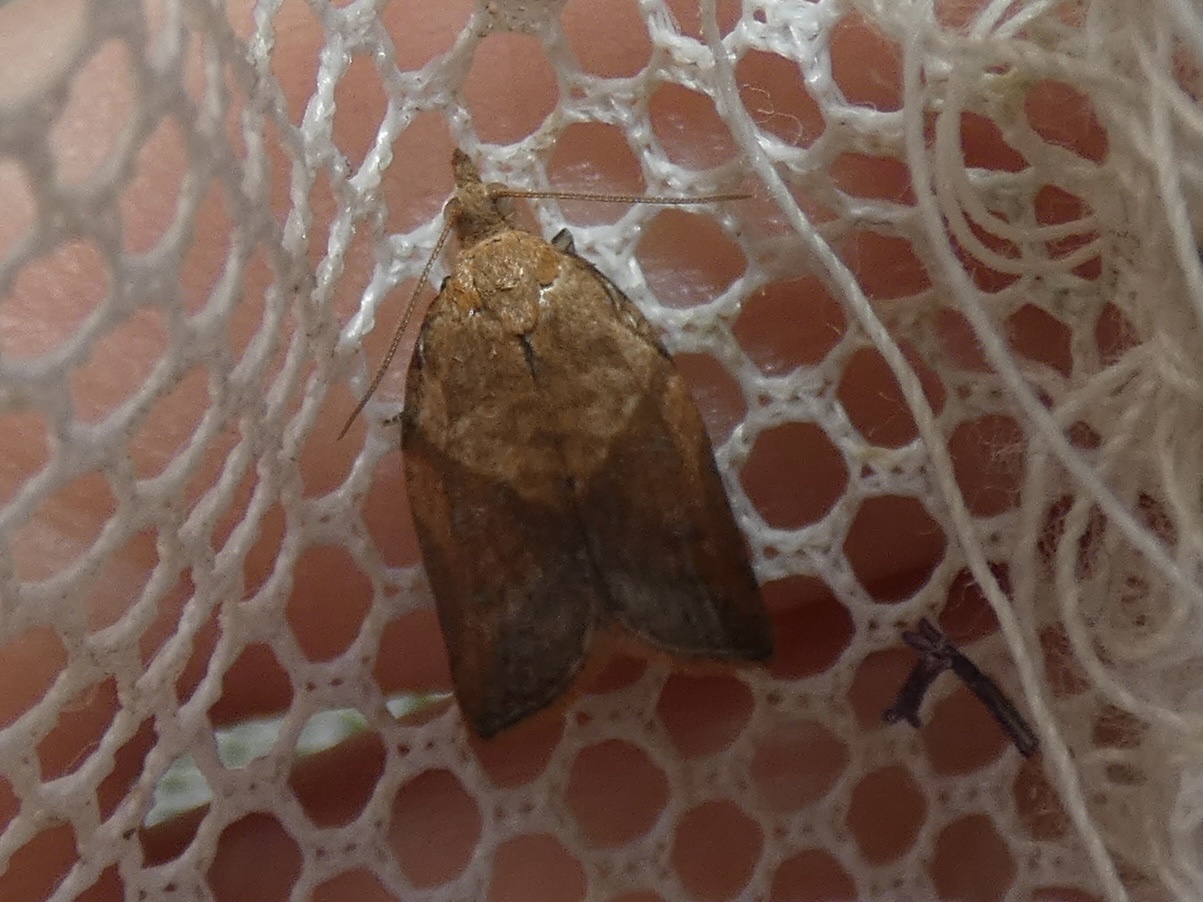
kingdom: Animalia
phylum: Arthropoda
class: Insecta
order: Lepidoptera
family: Tortricidae
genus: Epiphyas
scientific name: Epiphyas postvittana
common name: Light brown apple moth
